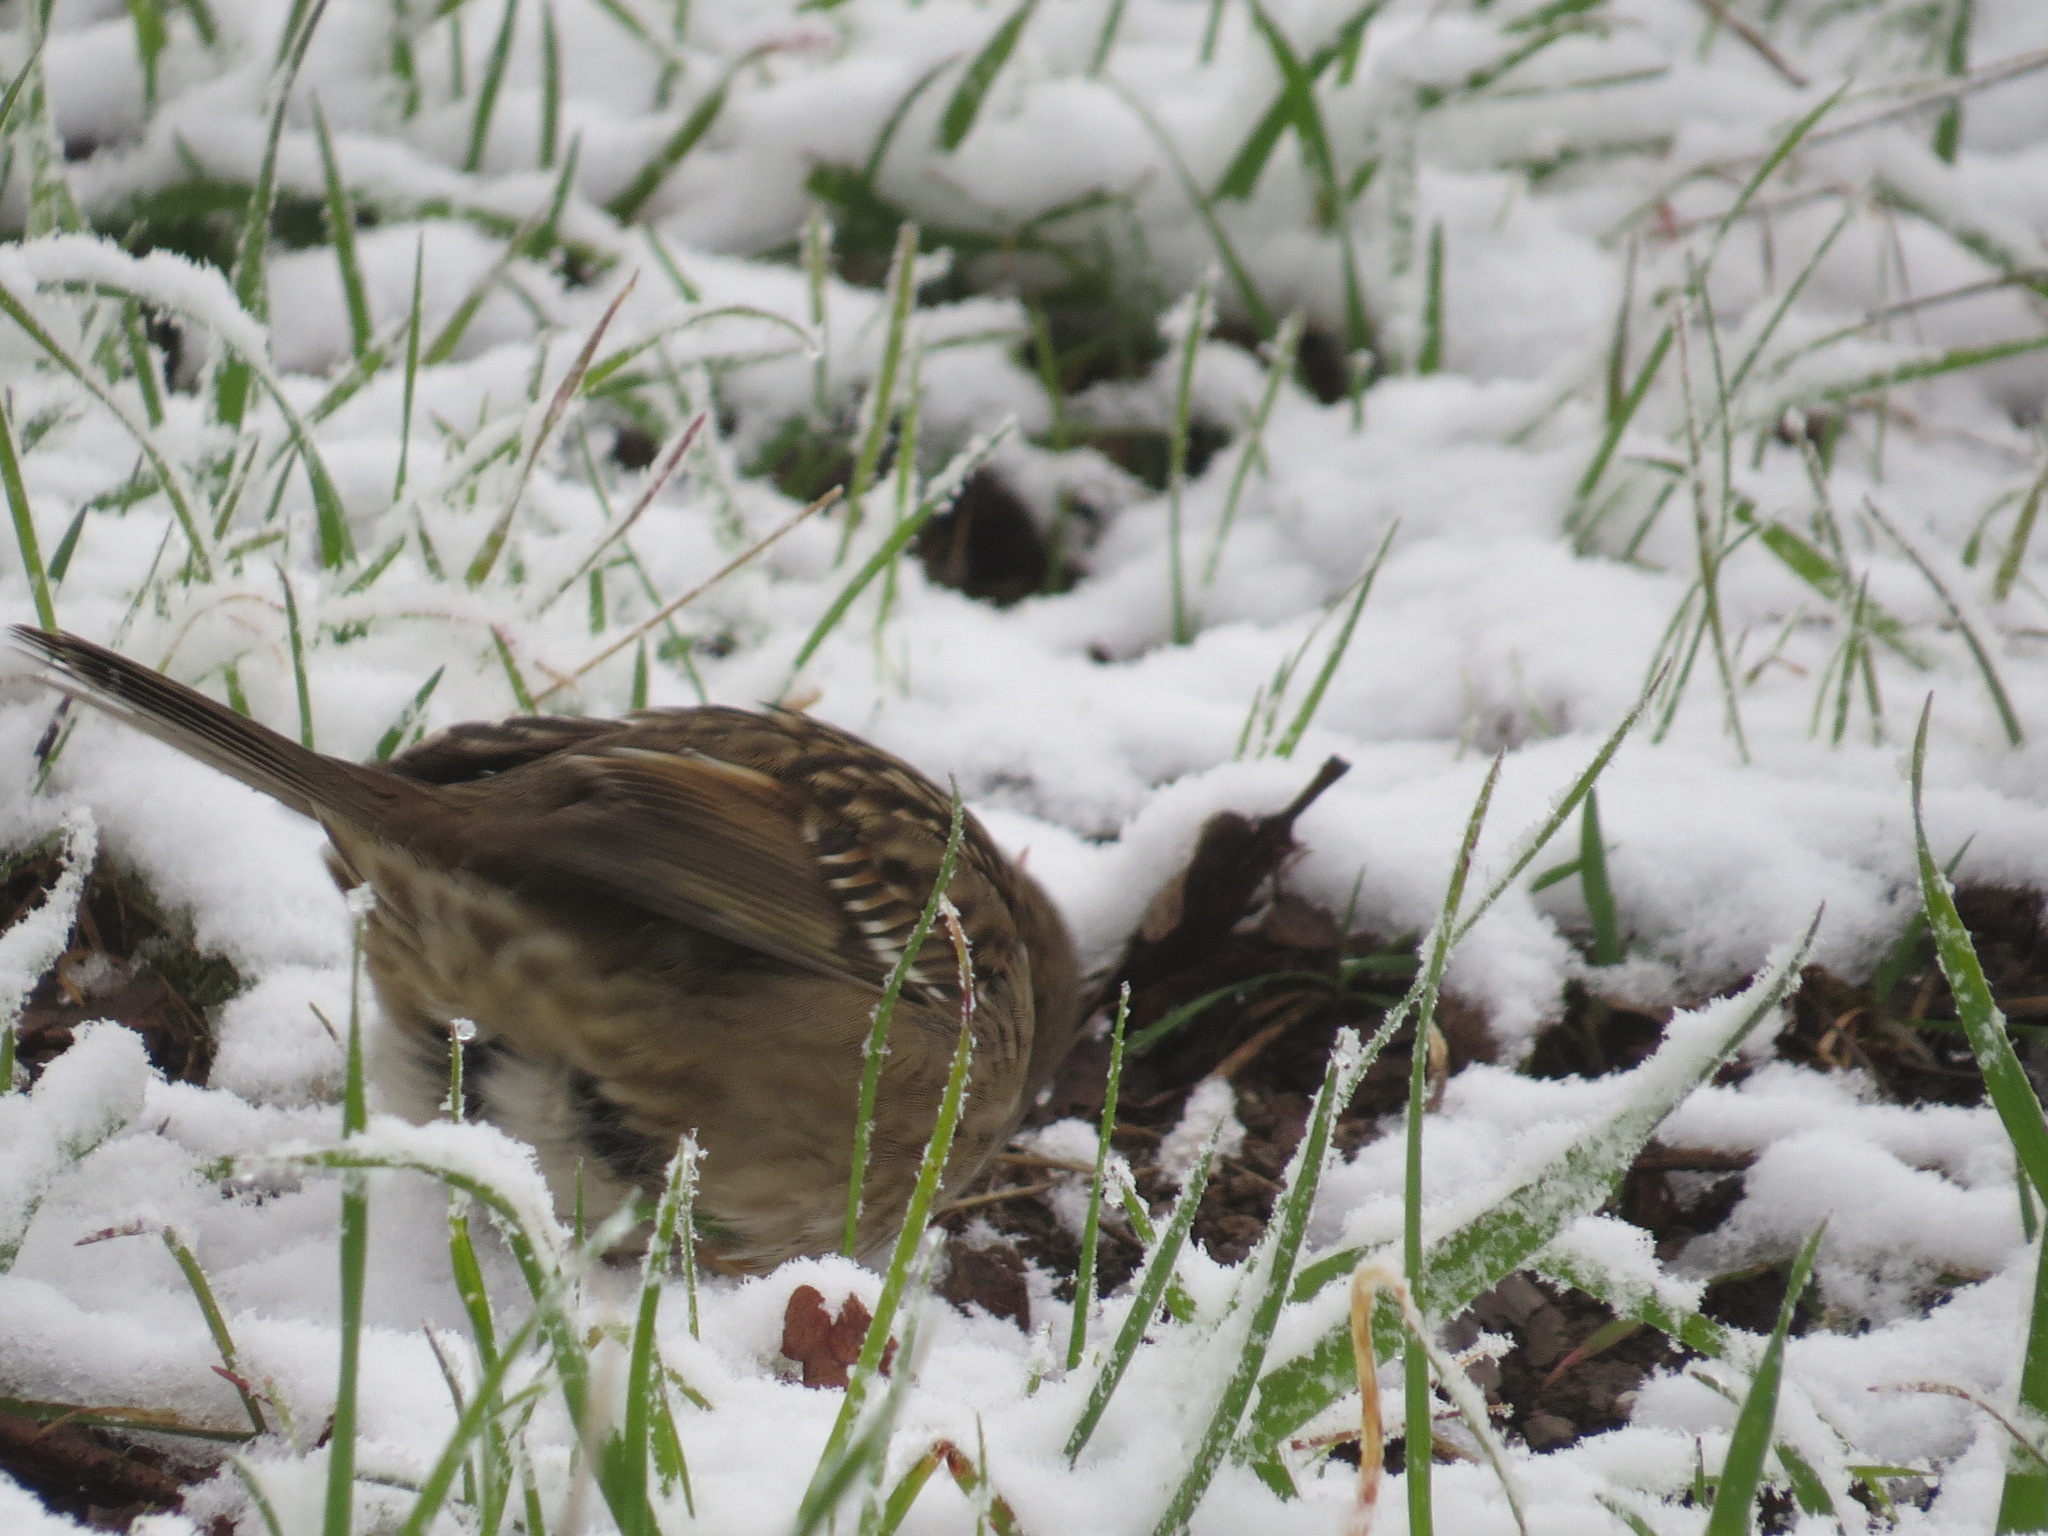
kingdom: Animalia
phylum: Chordata
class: Aves
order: Passeriformes
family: Passerellidae
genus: Zonotrichia
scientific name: Zonotrichia atricapilla
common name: Golden-crowned sparrow
